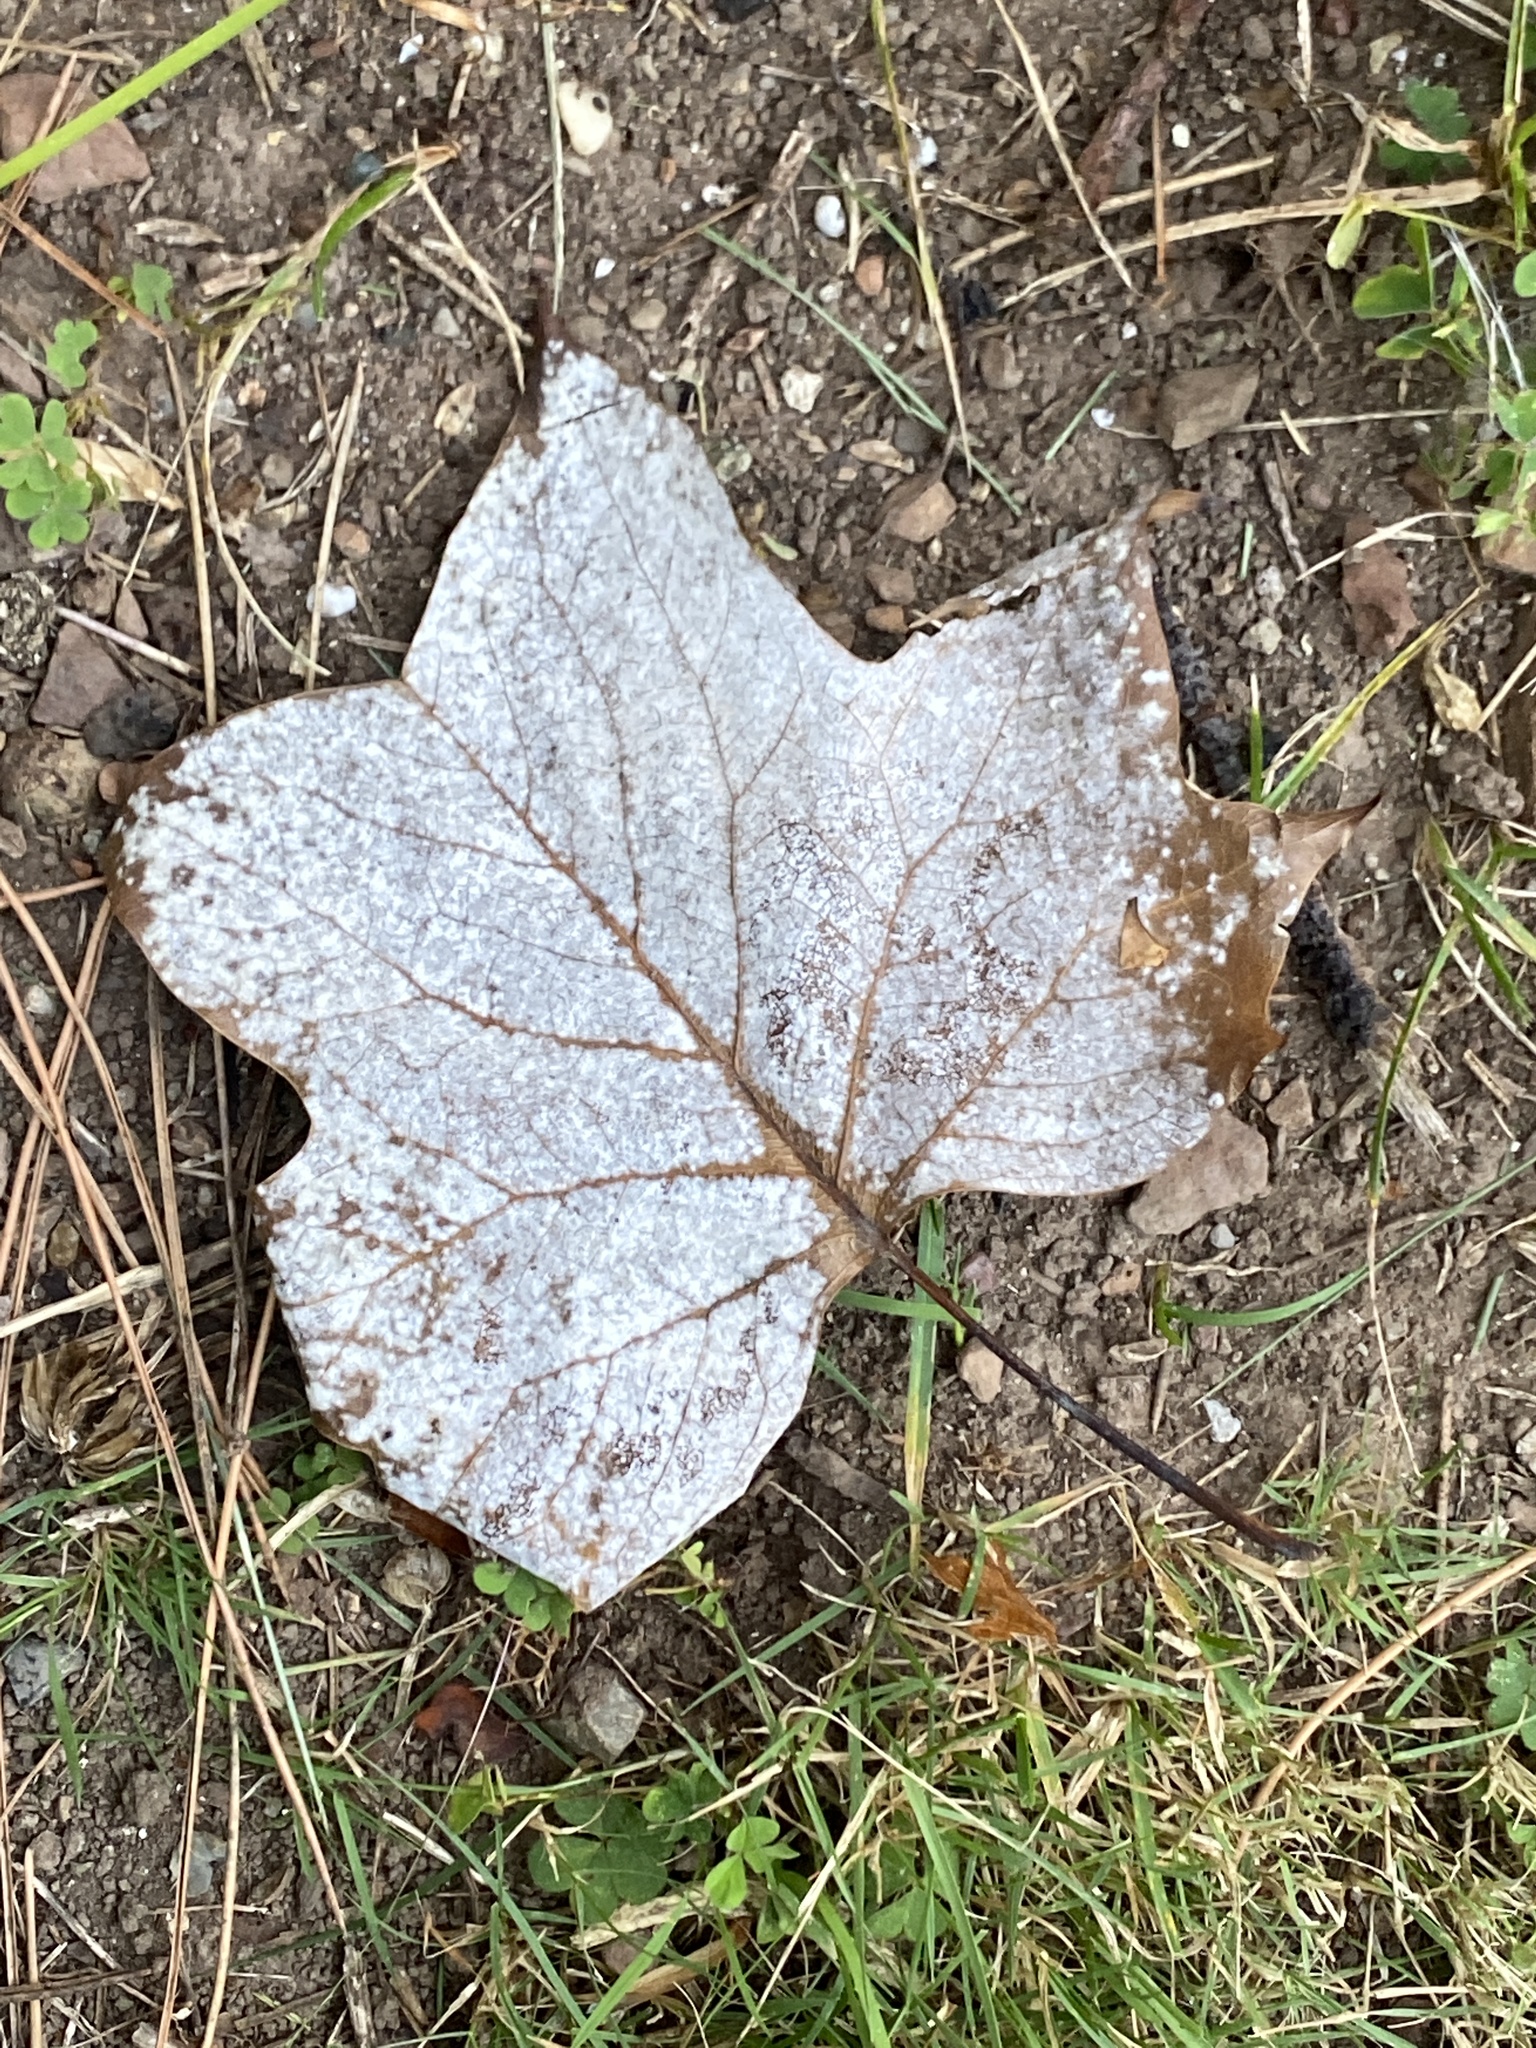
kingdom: Plantae
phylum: Tracheophyta
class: Magnoliopsida
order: Magnoliales
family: Magnoliaceae
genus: Liriodendron
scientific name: Liriodendron tulipifera
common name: Tulip tree
